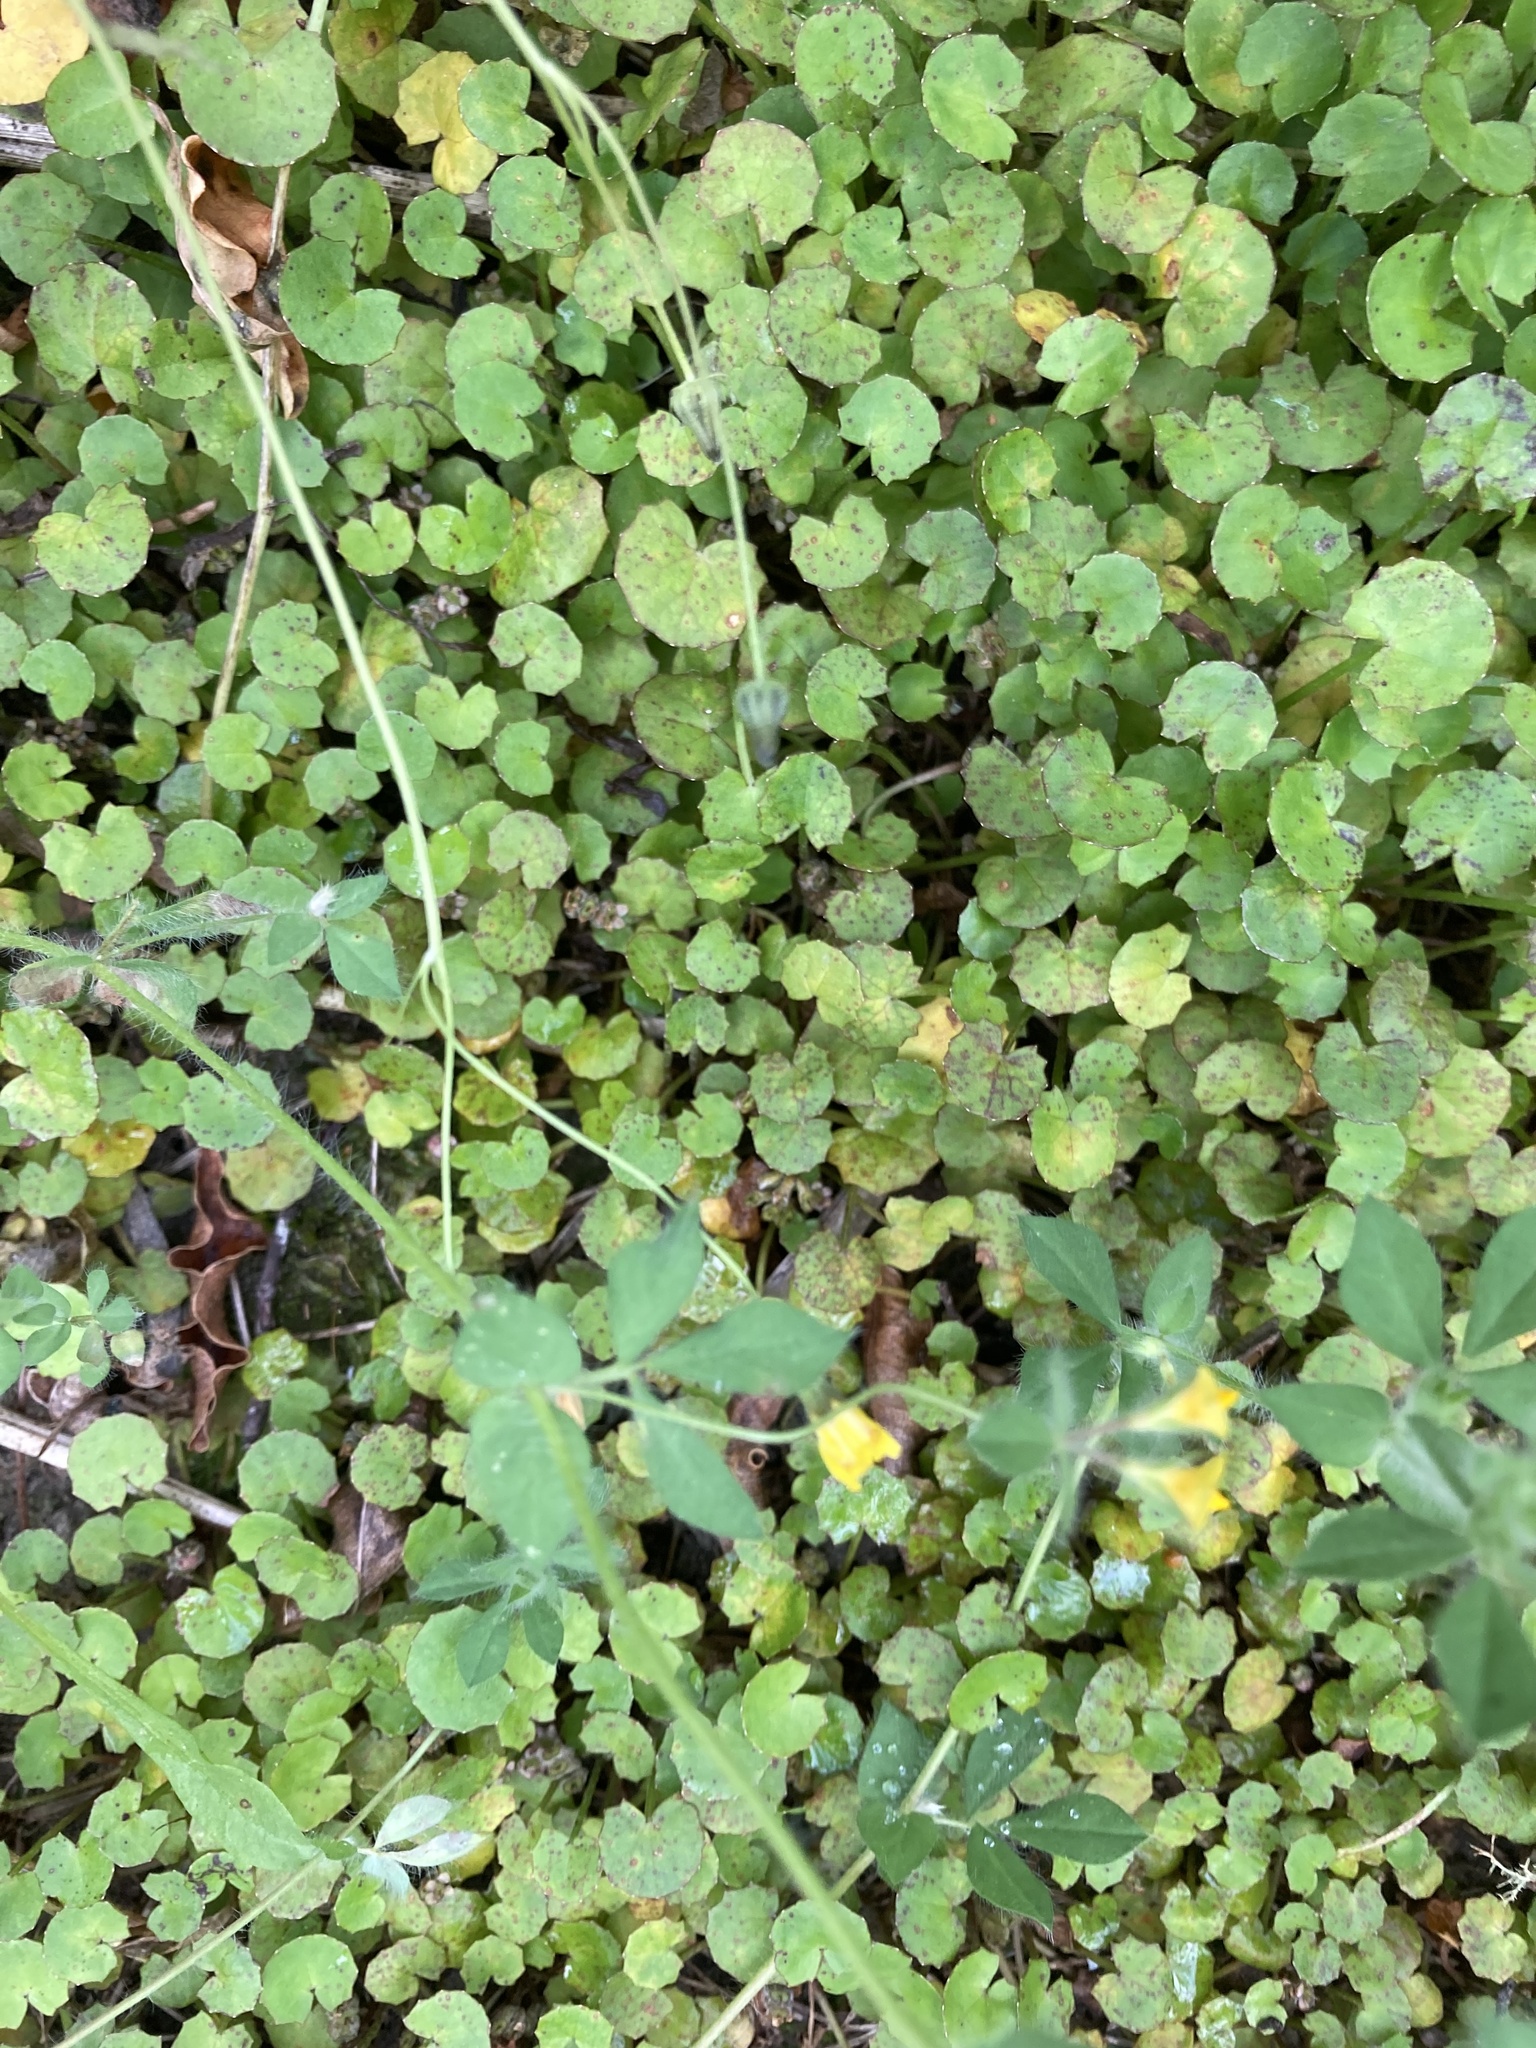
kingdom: Plantae
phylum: Tracheophyta
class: Magnoliopsida
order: Apiales
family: Apiaceae
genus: Centella
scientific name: Centella uniflora
